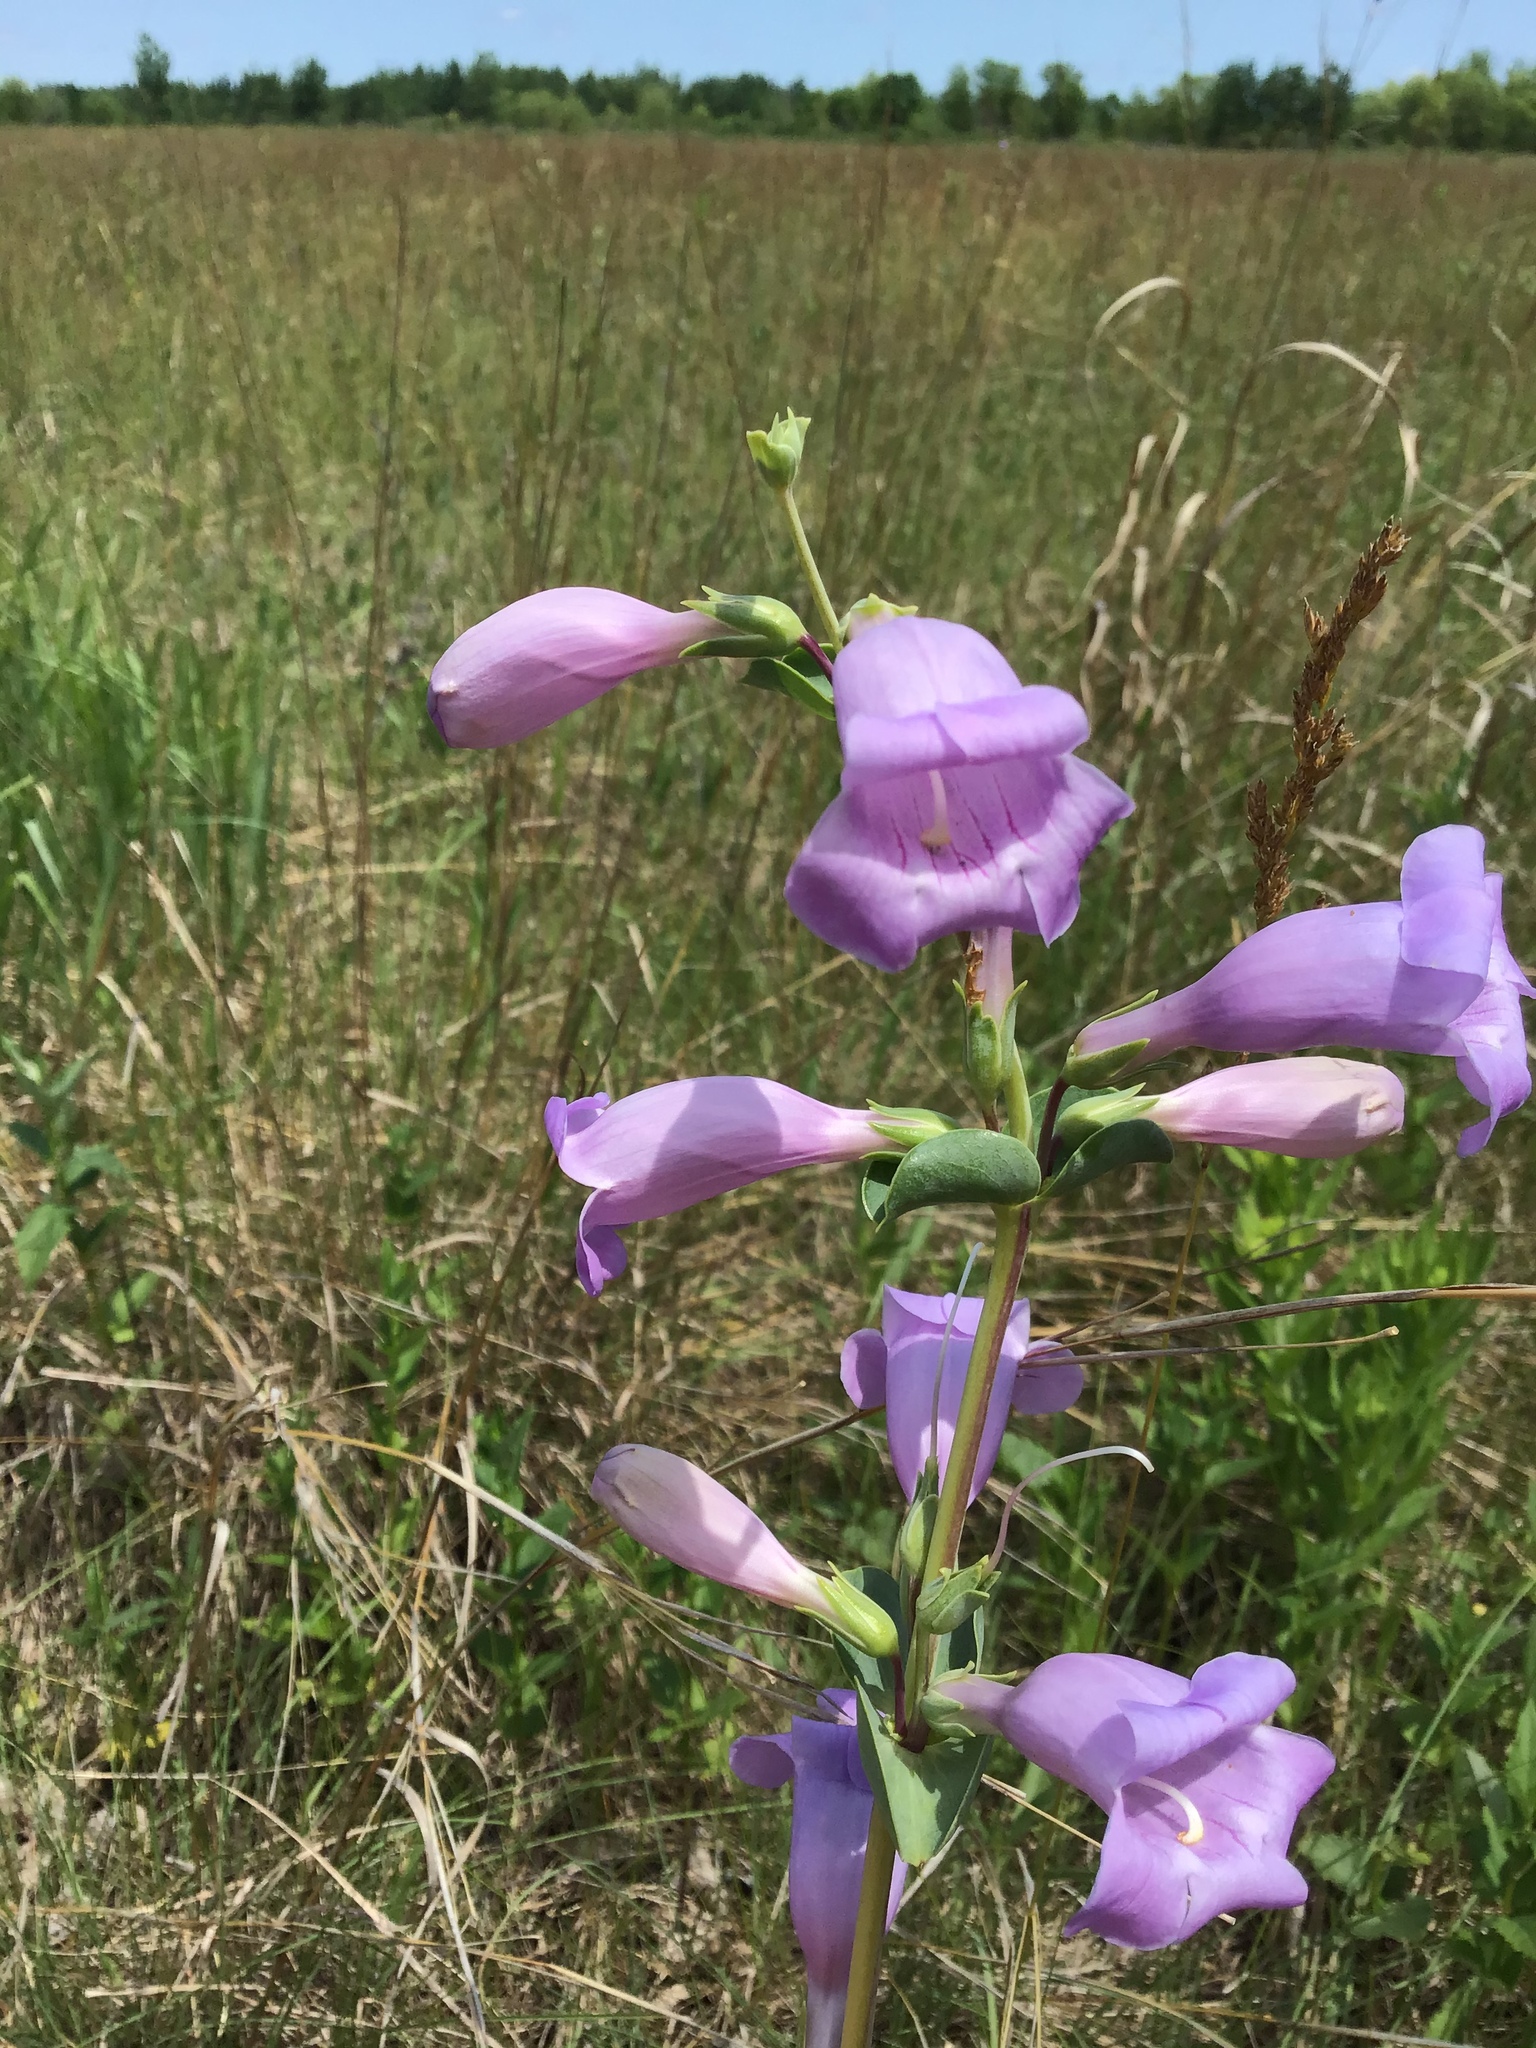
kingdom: Plantae
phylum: Tracheophyta
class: Magnoliopsida
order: Lamiales
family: Plantaginaceae
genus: Penstemon
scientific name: Penstemon
